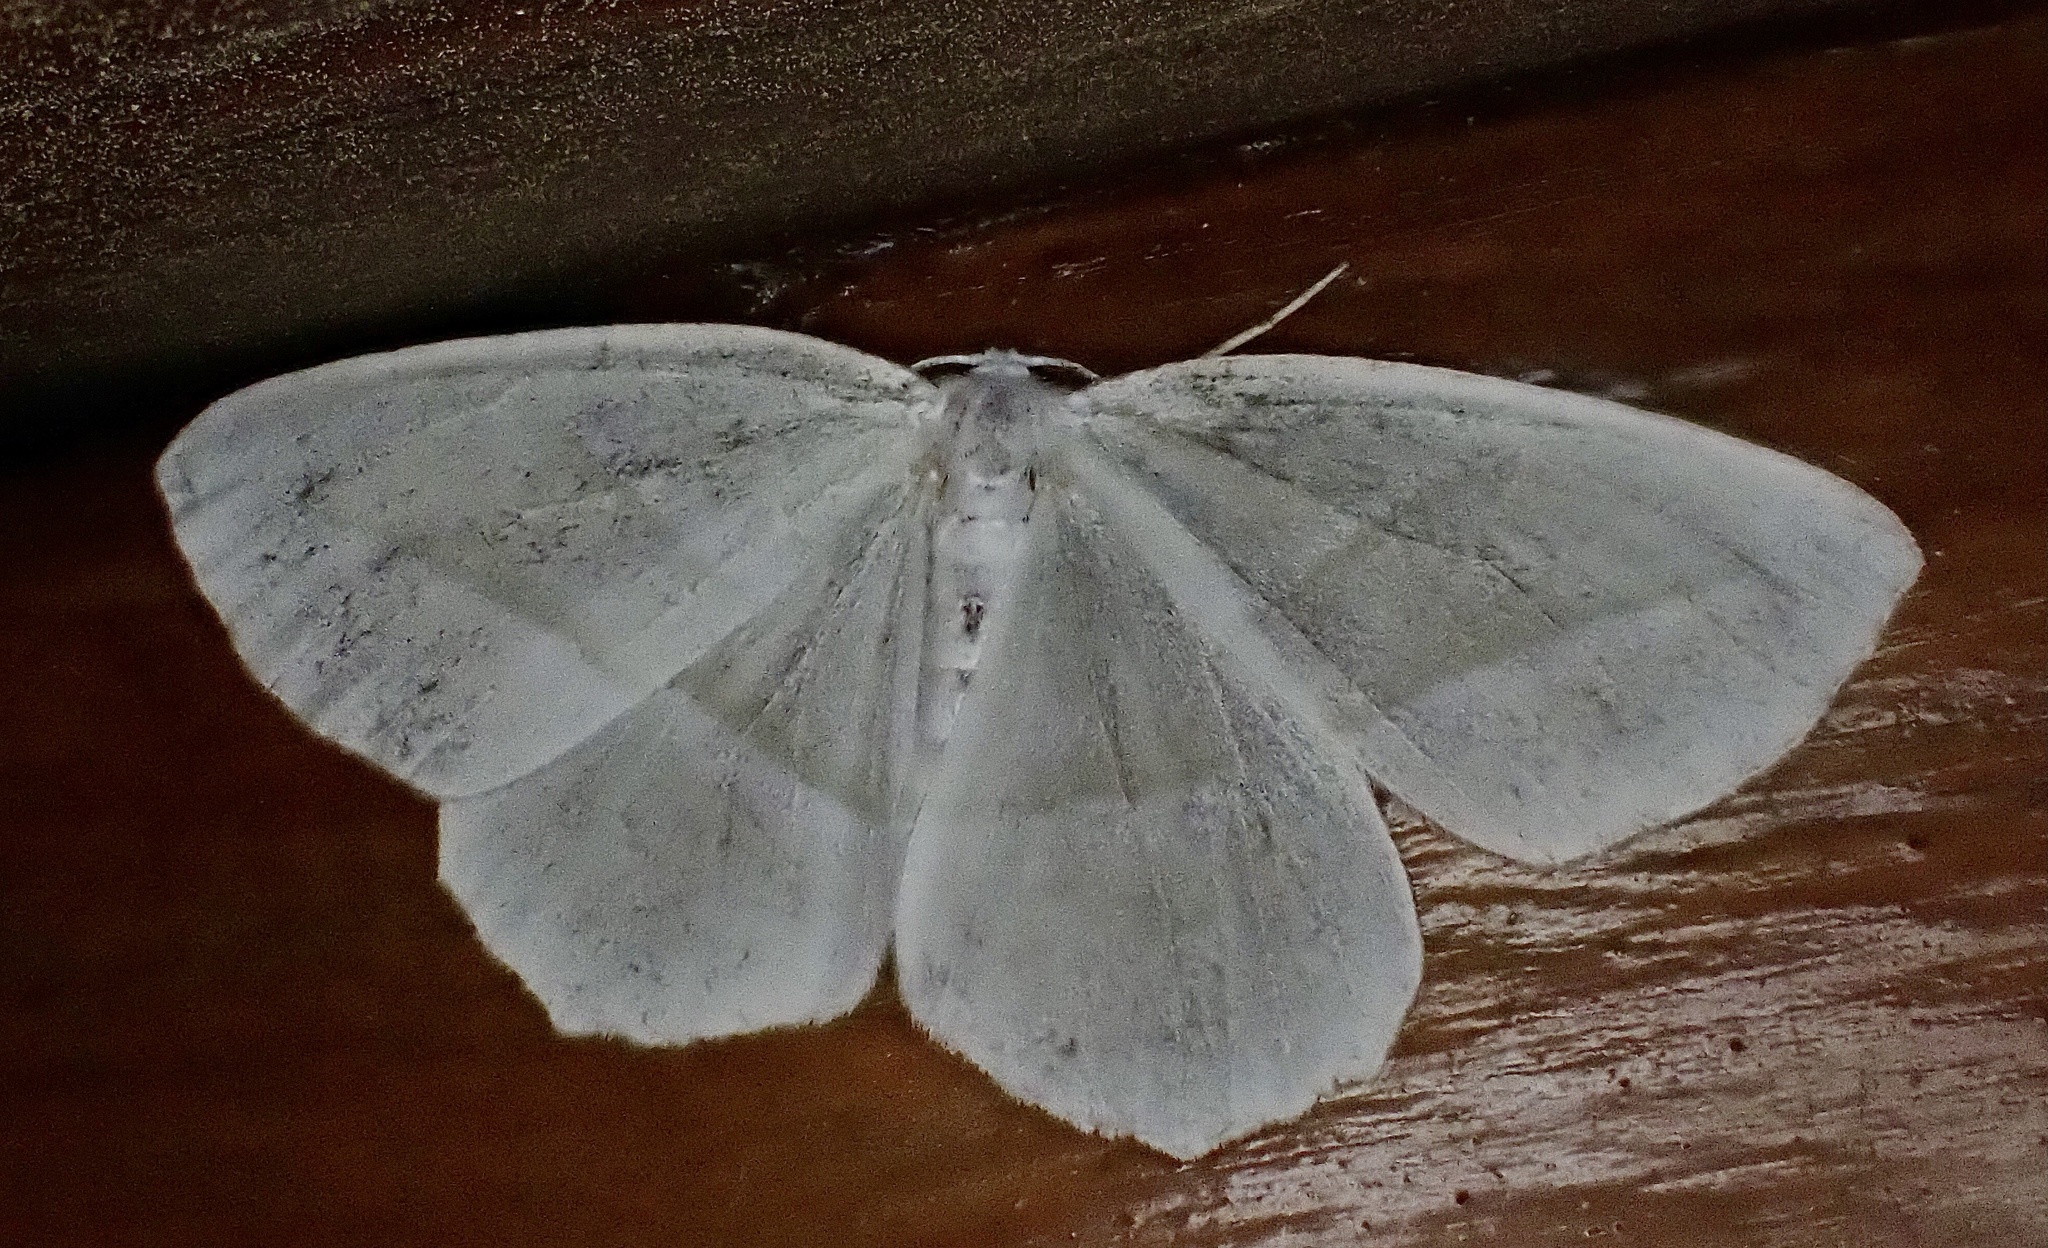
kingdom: Animalia
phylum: Arthropoda
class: Insecta
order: Lepidoptera
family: Geometridae
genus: Campaea
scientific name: Campaea perlata
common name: Fringed looper
